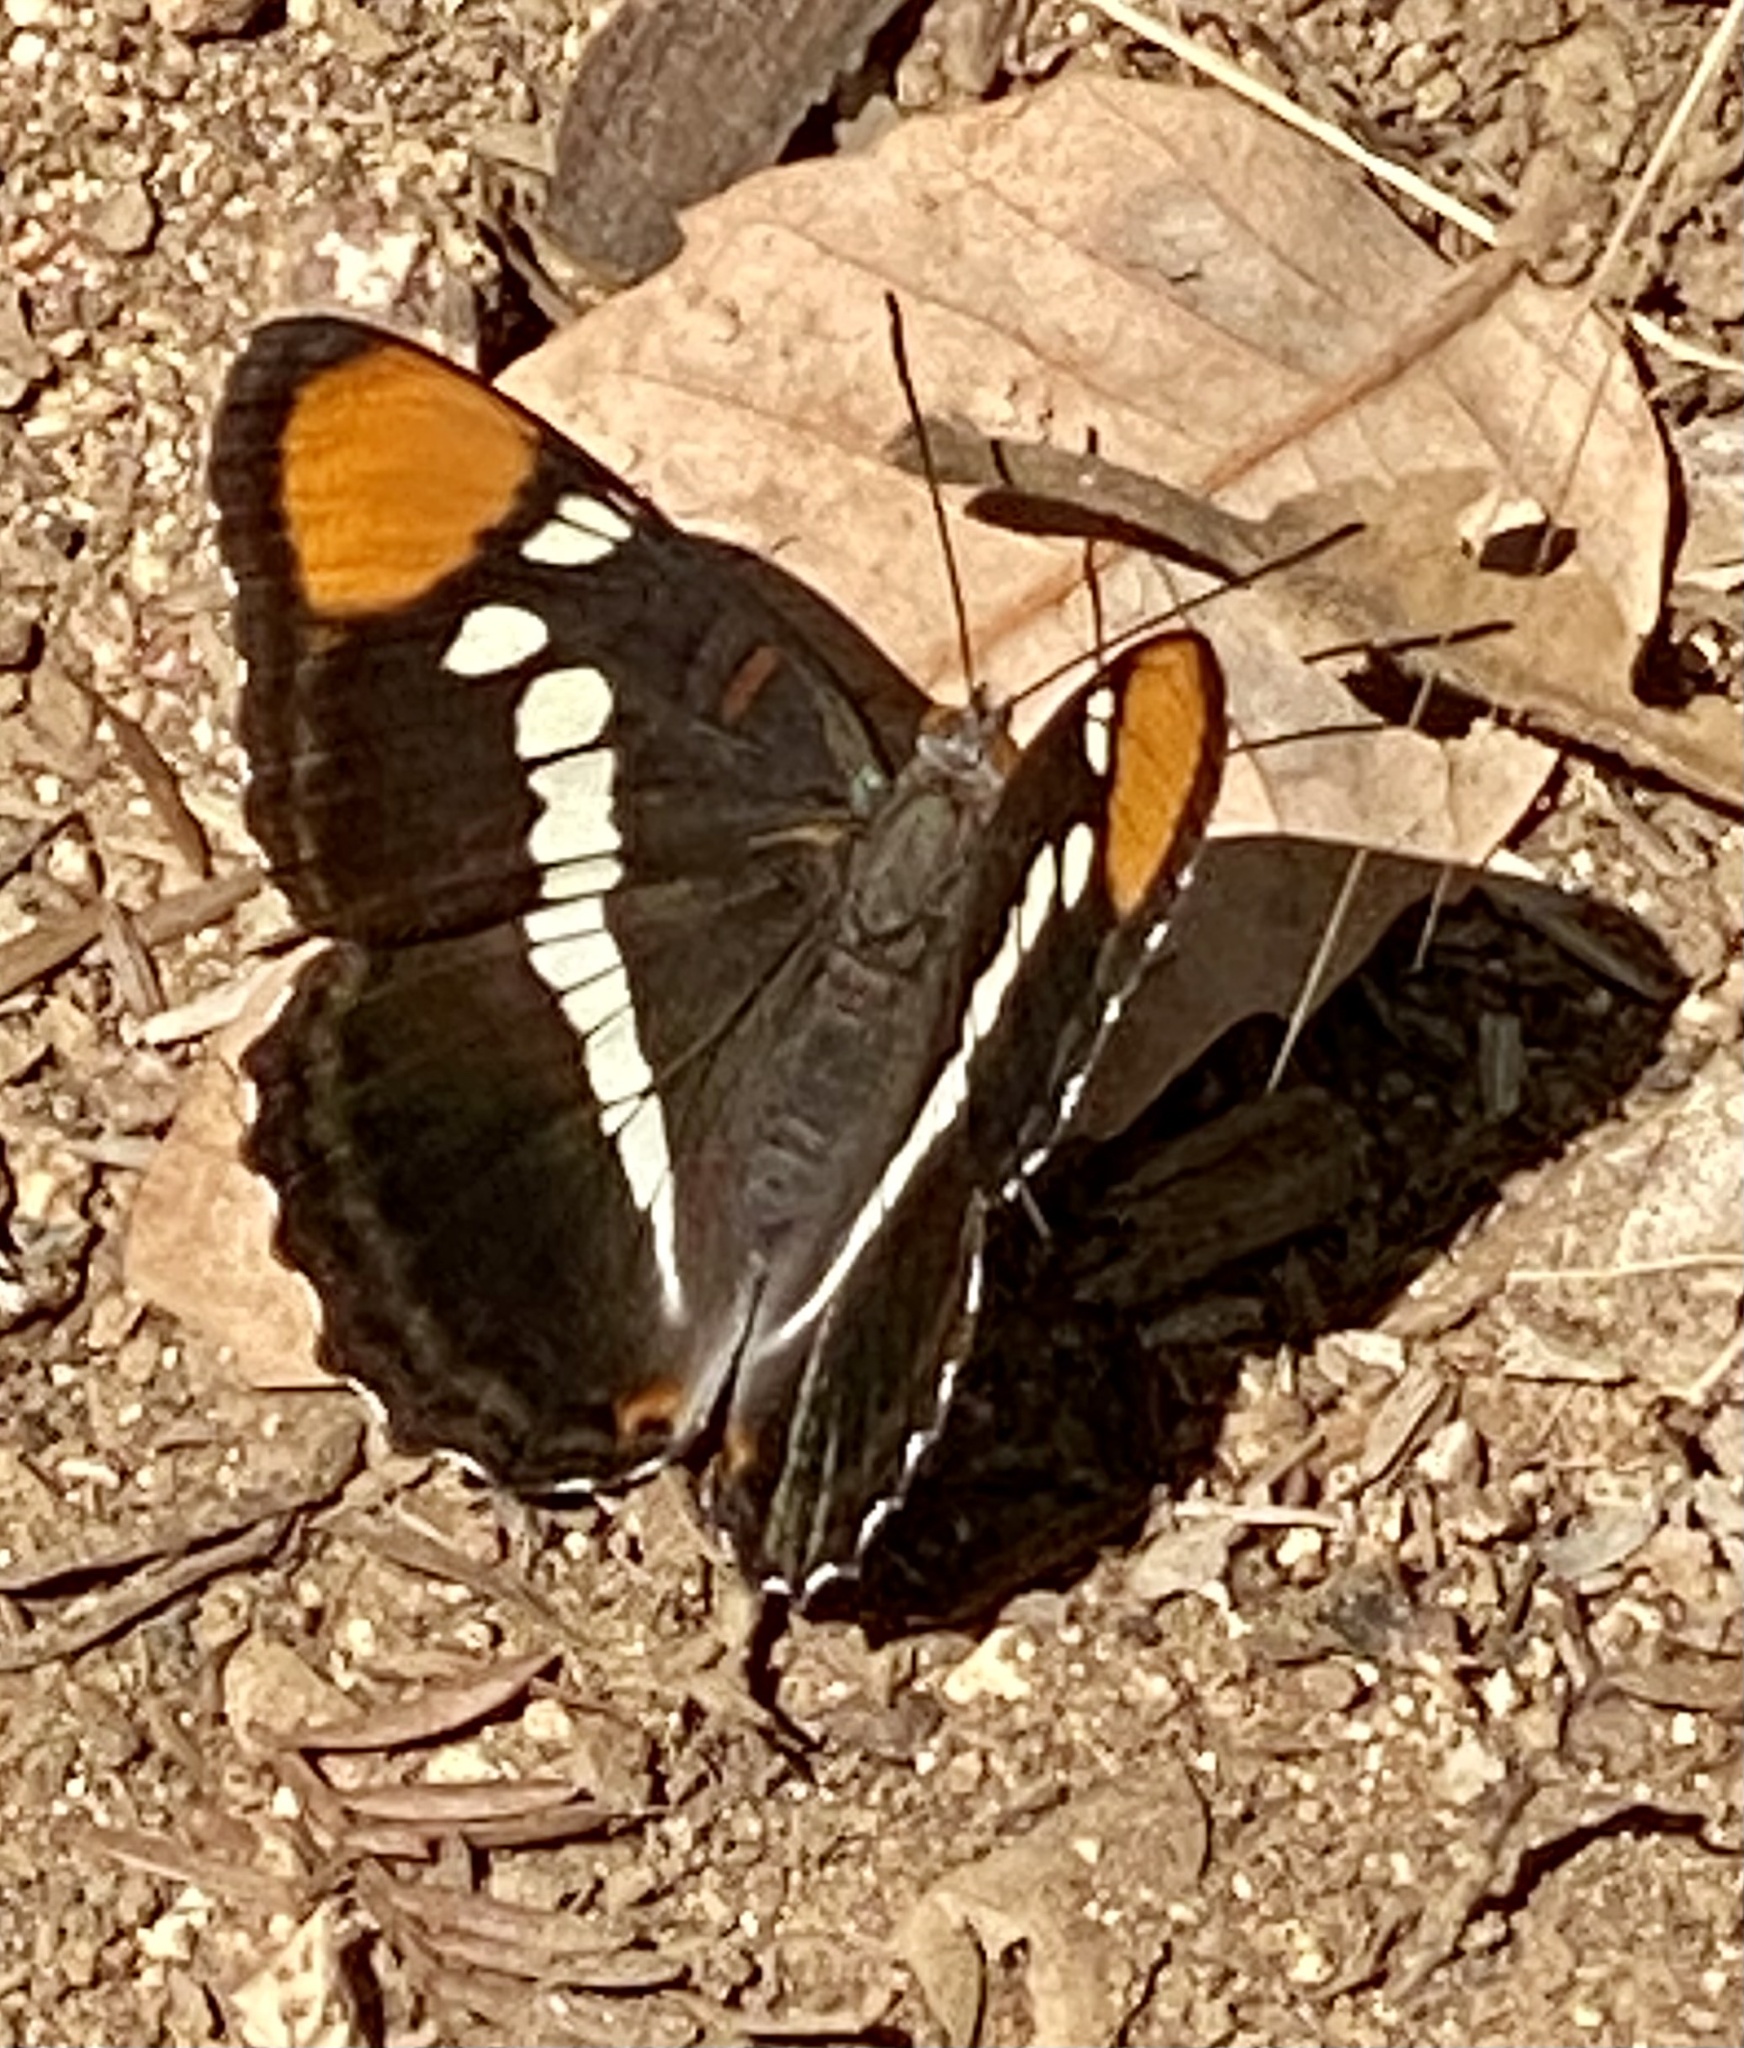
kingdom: Animalia
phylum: Arthropoda
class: Insecta
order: Lepidoptera
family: Nymphalidae
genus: Limenitis
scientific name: Limenitis bredowii
